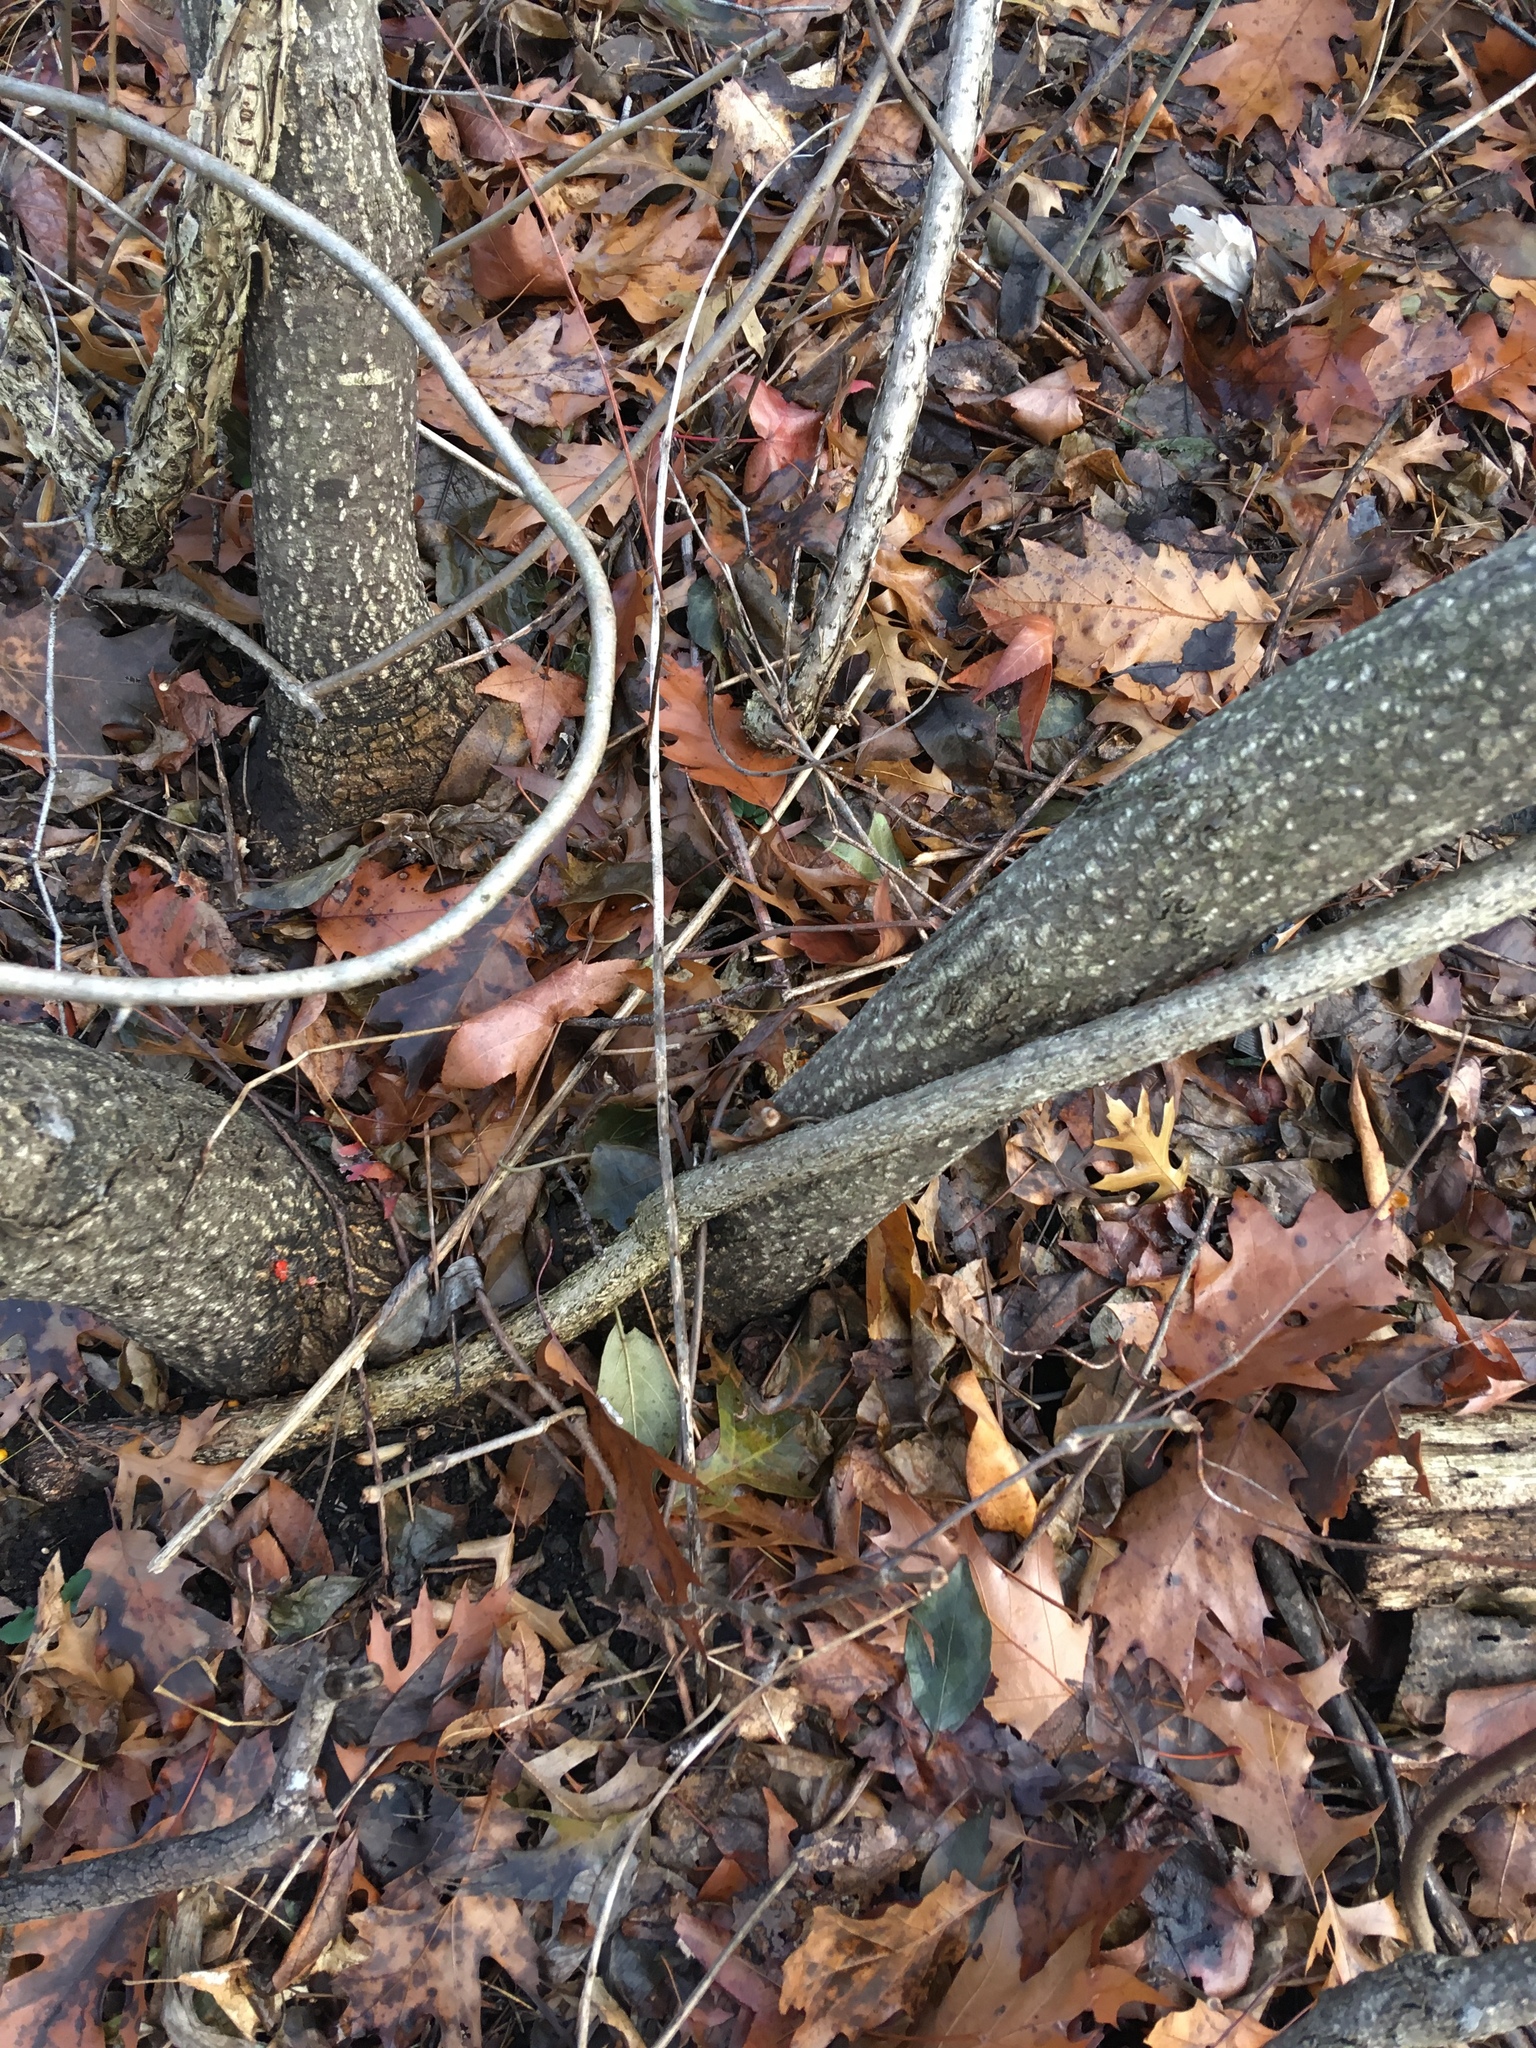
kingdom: Plantae
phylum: Tracheophyta
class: Magnoliopsida
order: Celastrales
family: Celastraceae
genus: Celastrus
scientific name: Celastrus orbiculatus
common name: Oriental bittersweet
